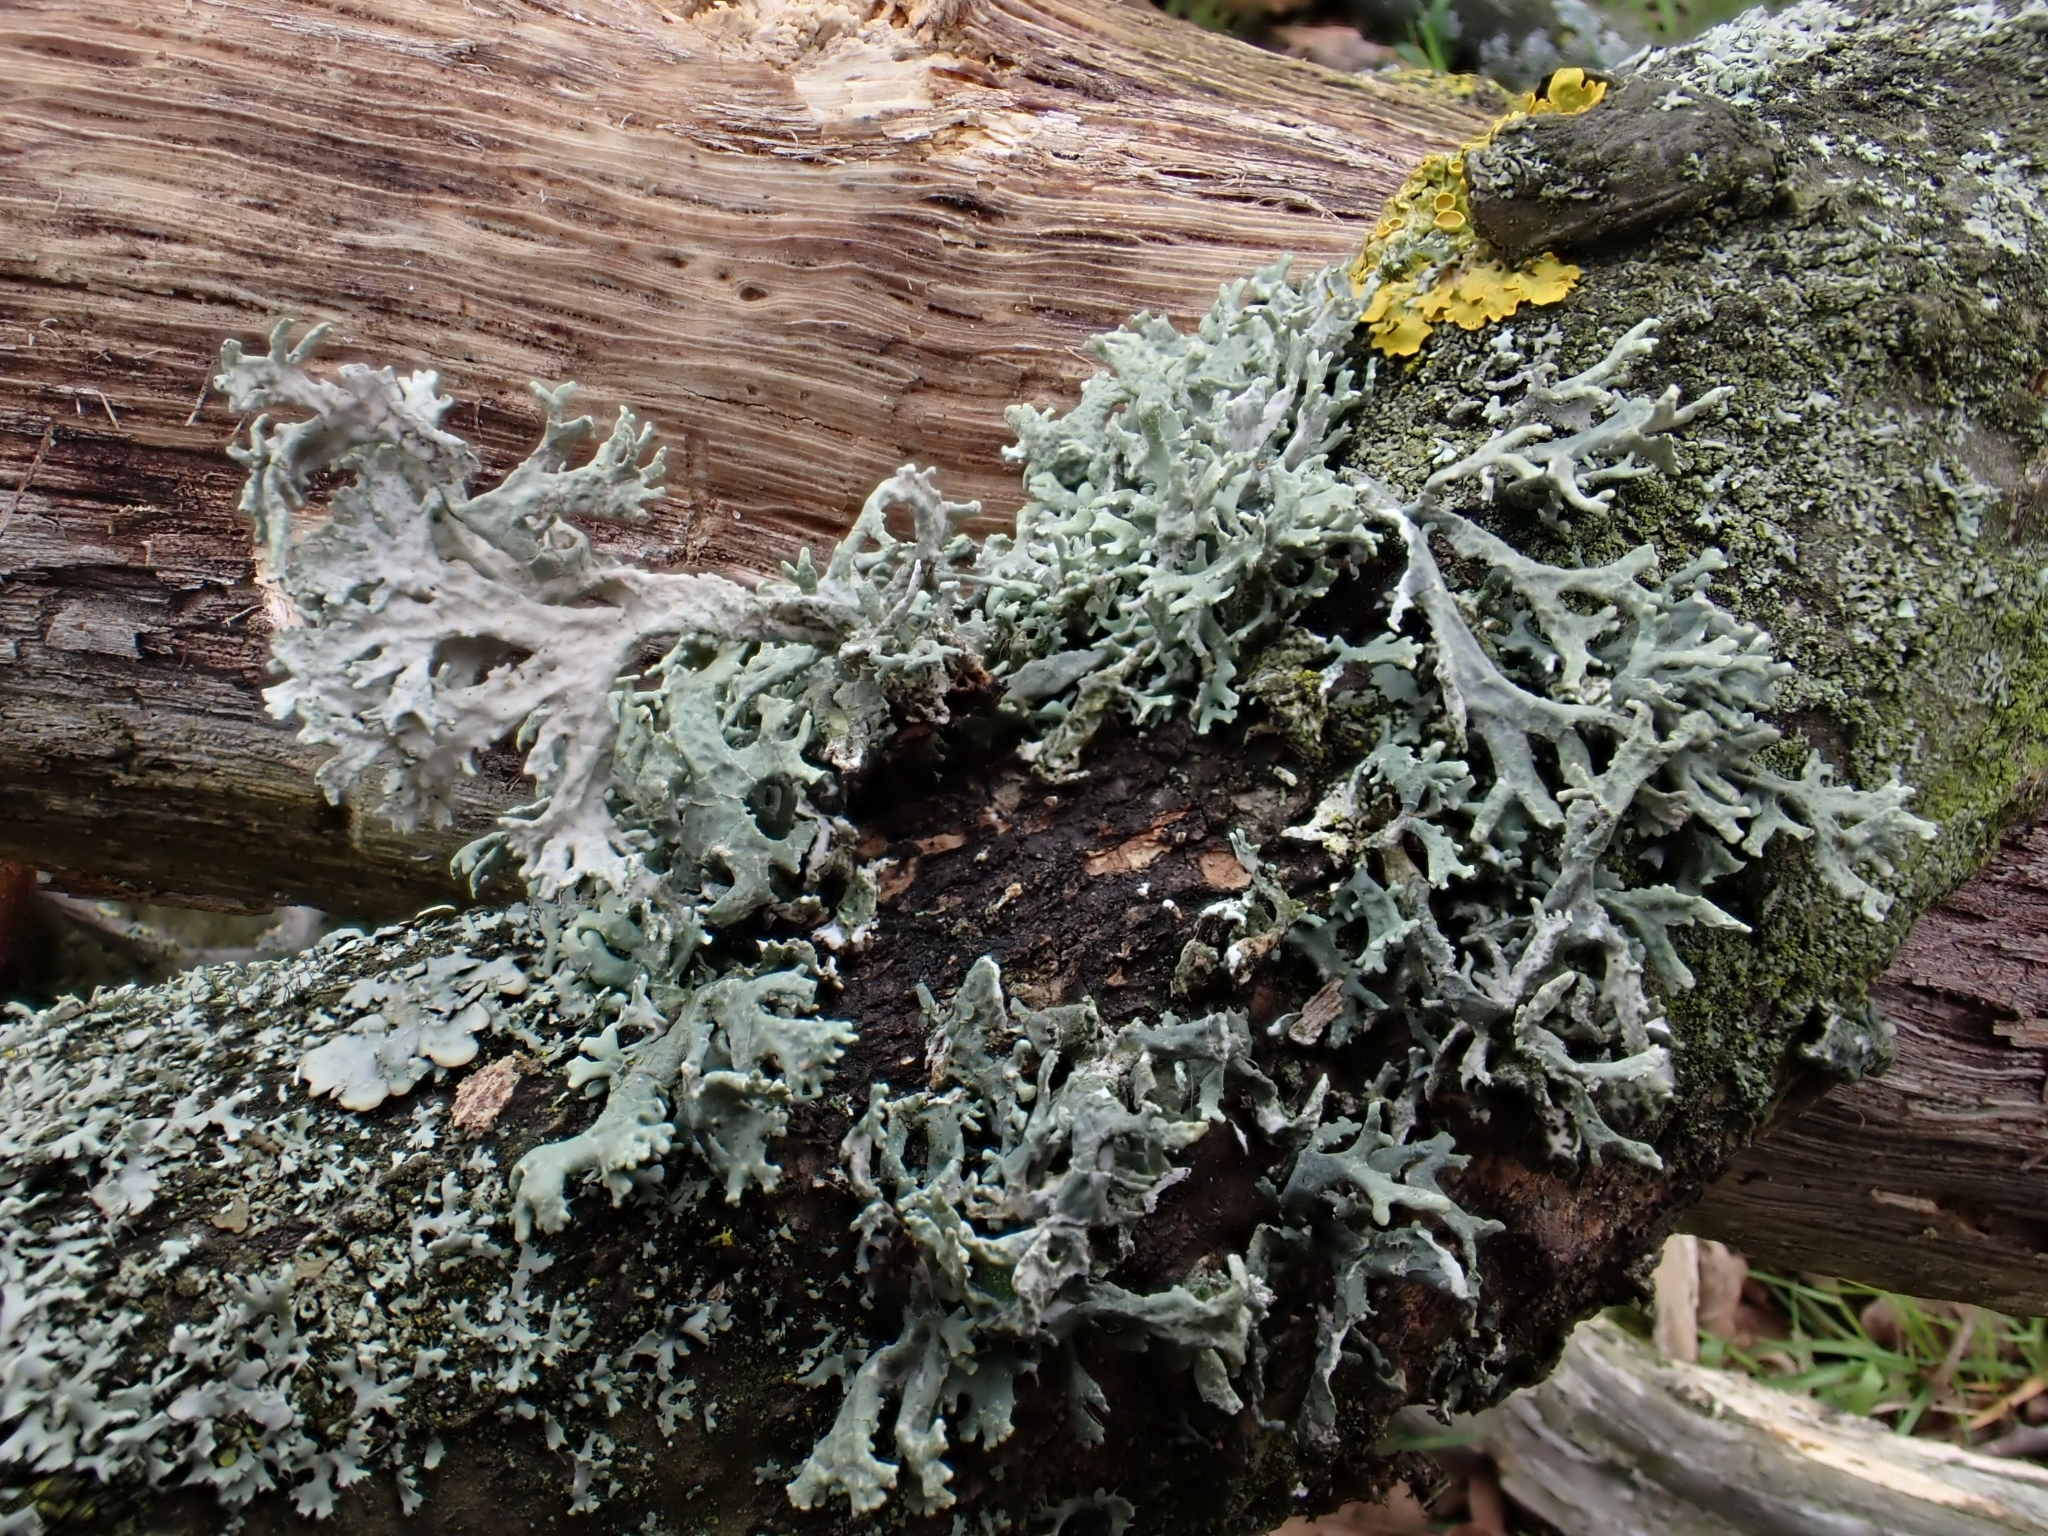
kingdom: Fungi
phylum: Ascomycota
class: Lecanoromycetes
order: Lecanorales
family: Parmeliaceae
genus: Evernia
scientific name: Evernia prunastri
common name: Oak moss
